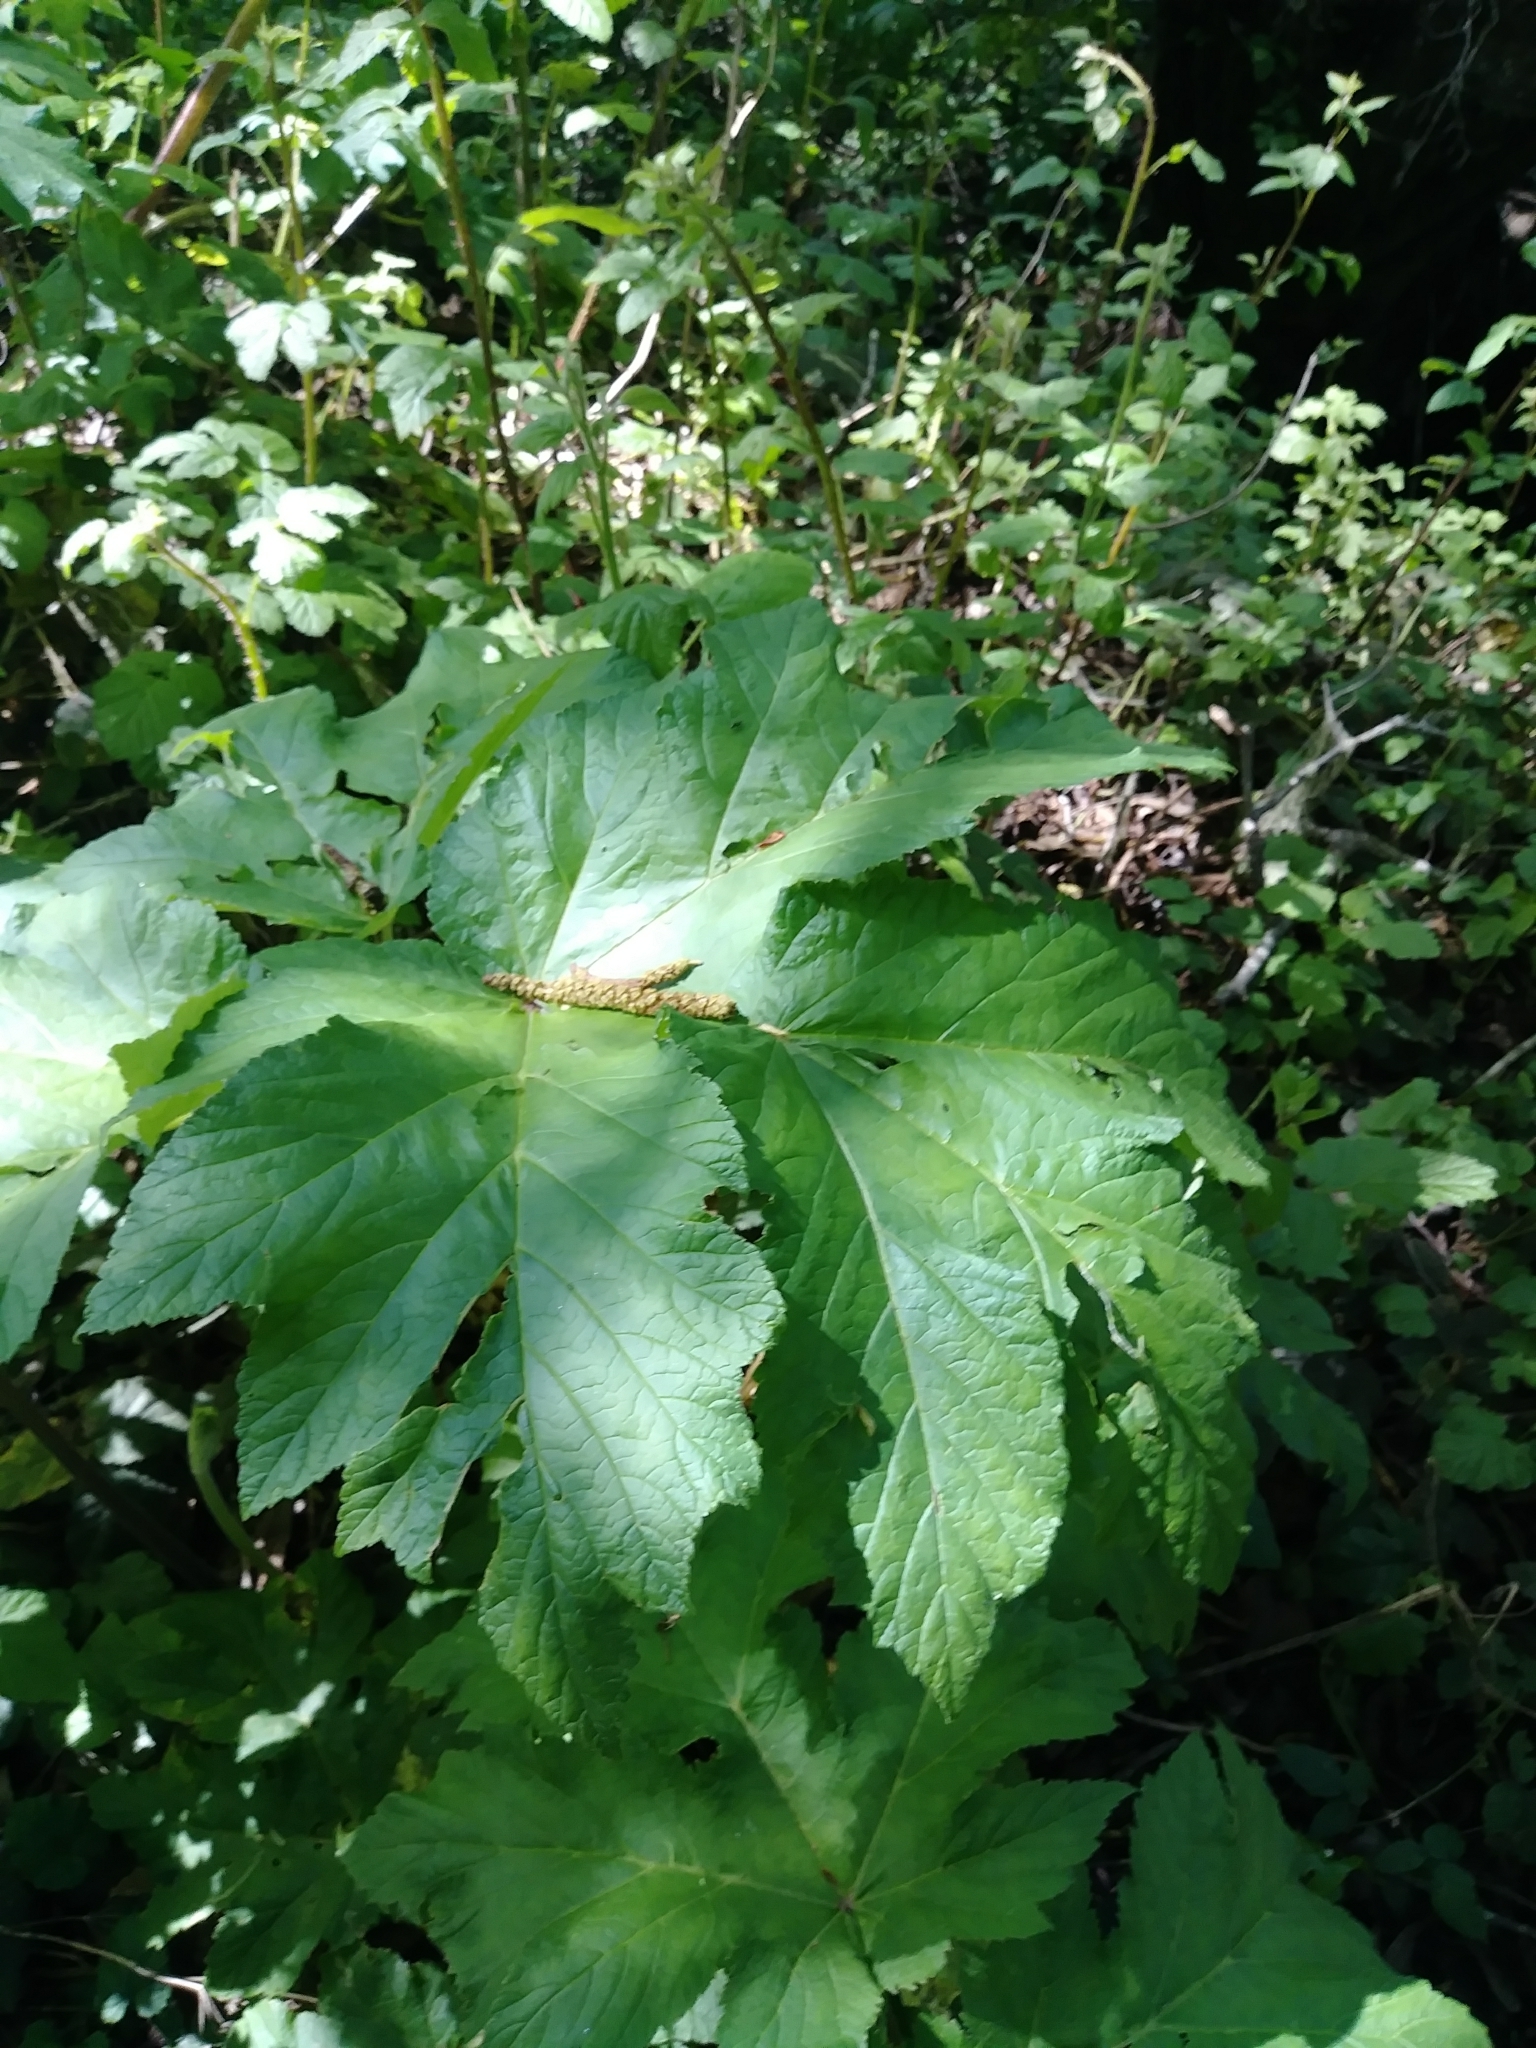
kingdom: Plantae
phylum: Tracheophyta
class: Magnoliopsida
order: Apiales
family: Apiaceae
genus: Heracleum
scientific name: Heracleum maximum
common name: American cow parsnip
